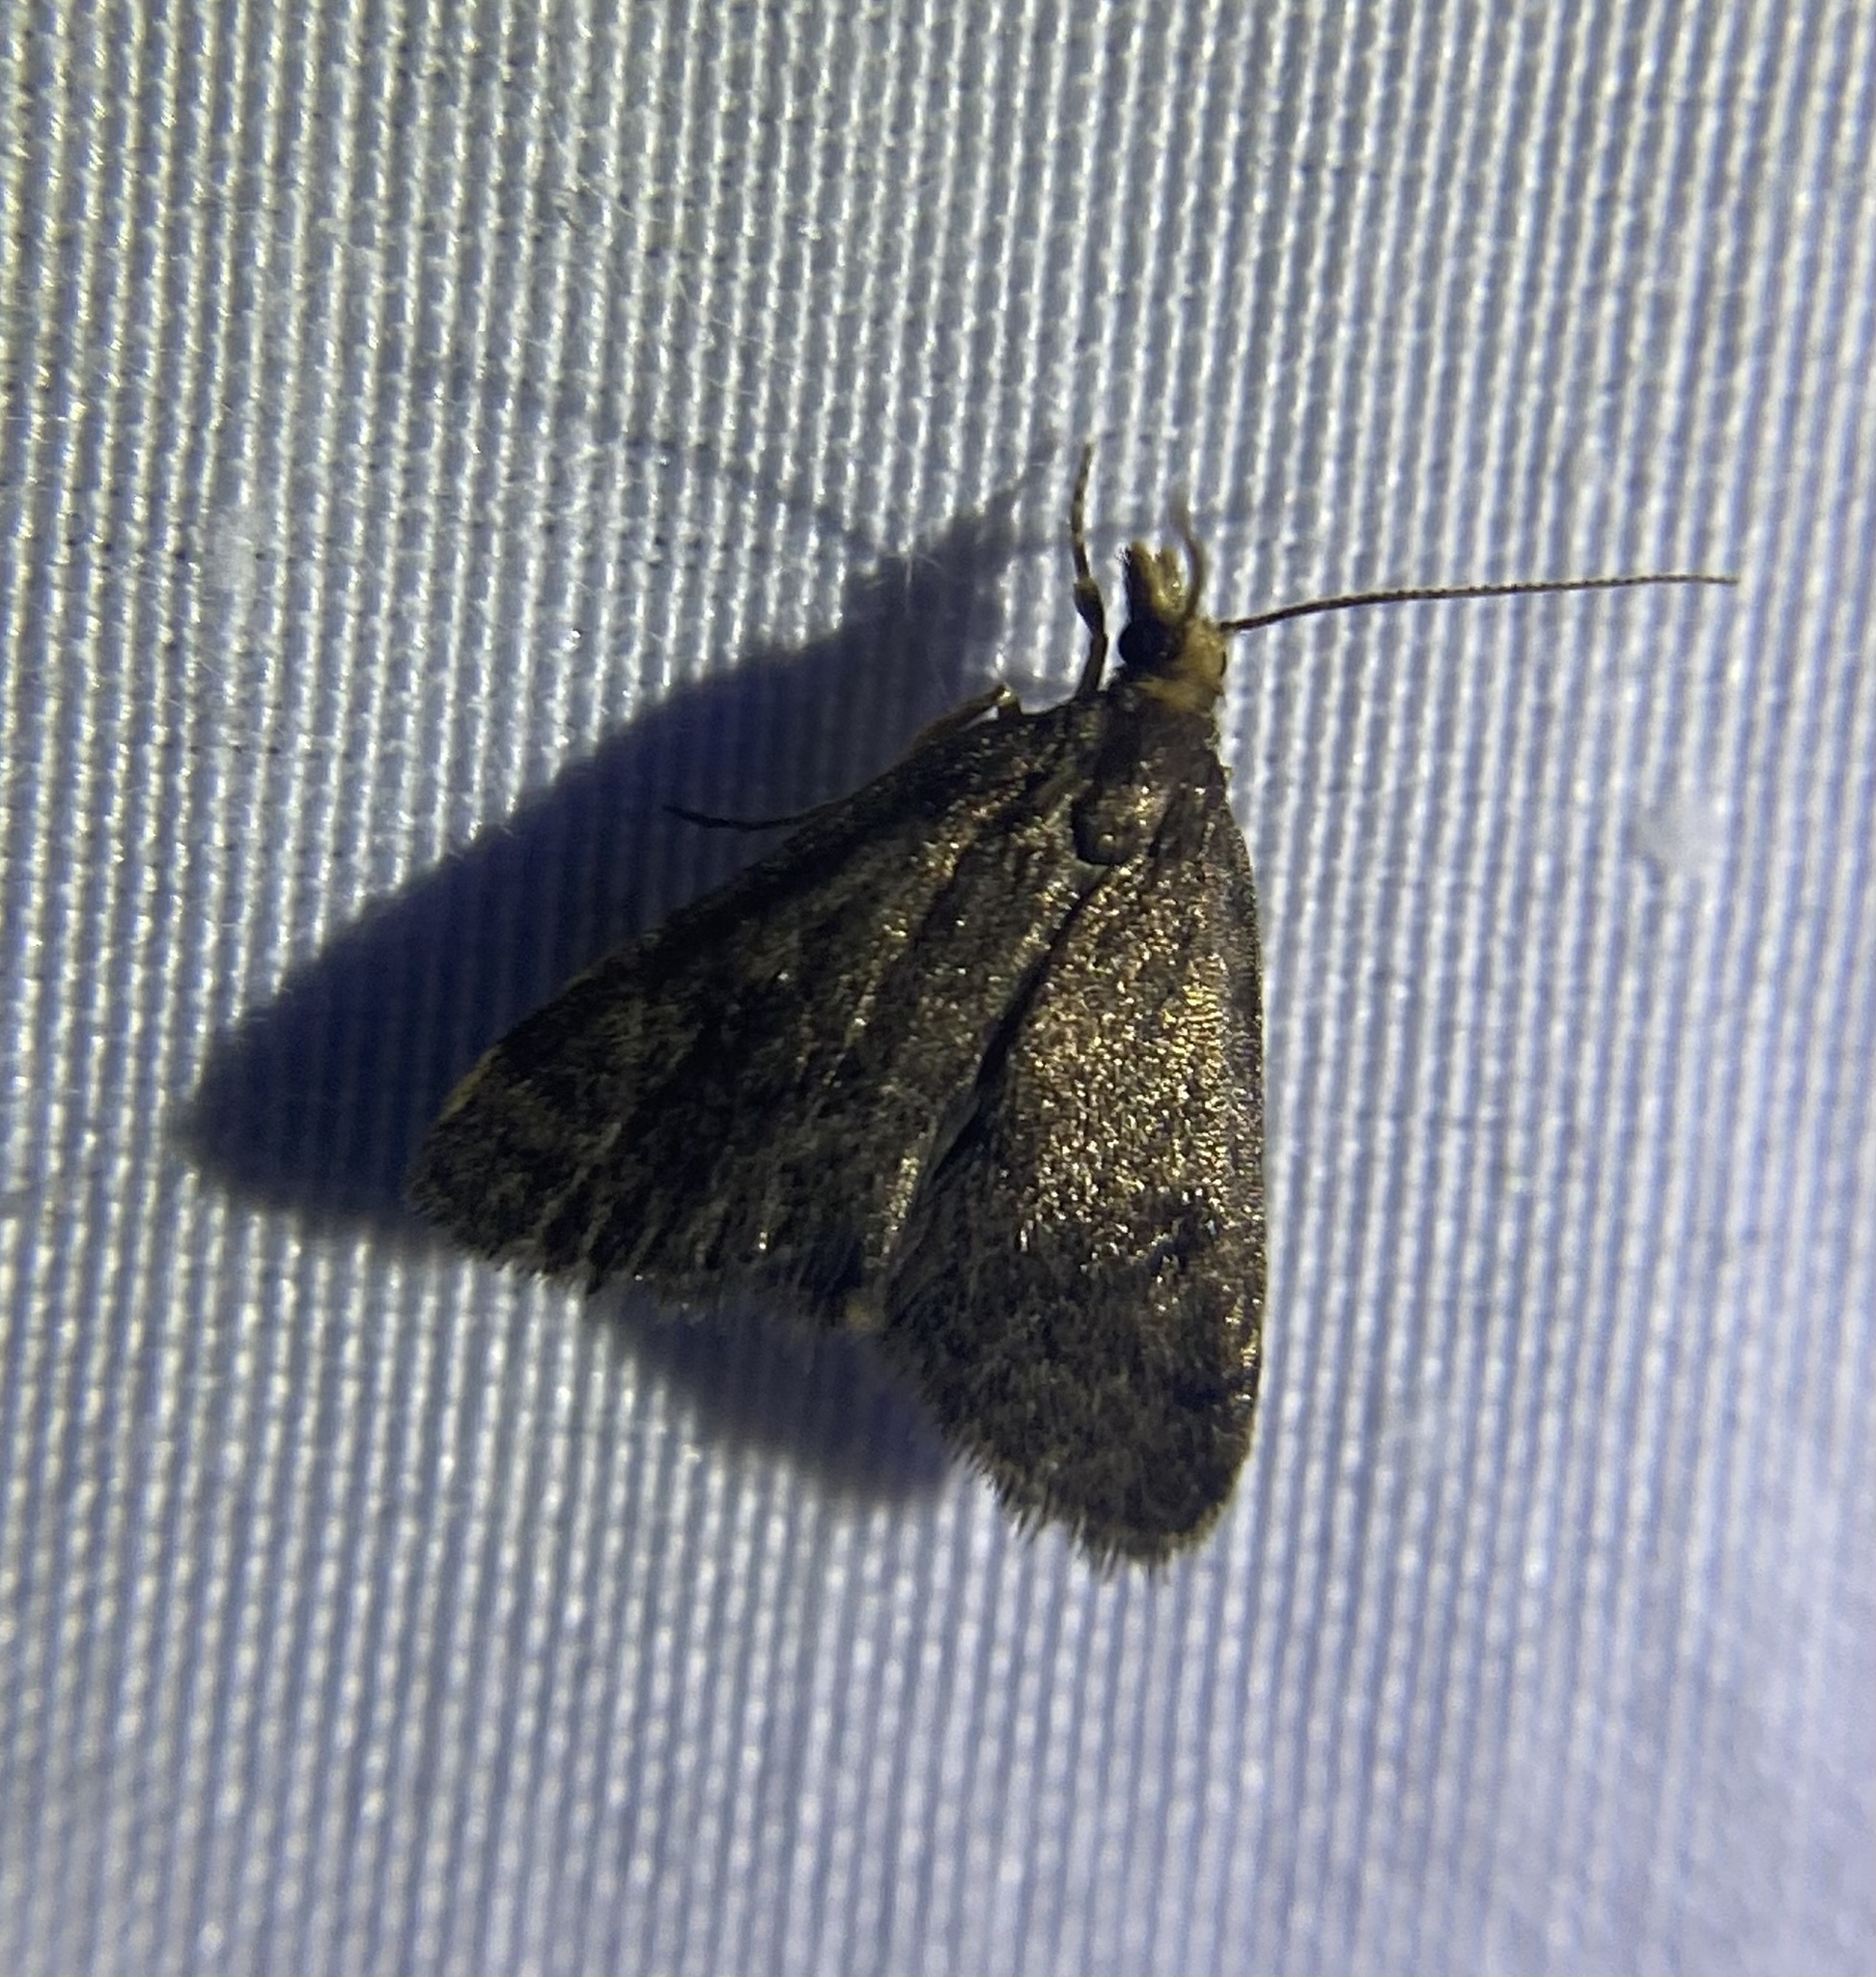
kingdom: Animalia
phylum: Arthropoda
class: Insecta
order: Lepidoptera
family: Crambidae
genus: Pyrausta
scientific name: Pyrausta merrickalis
